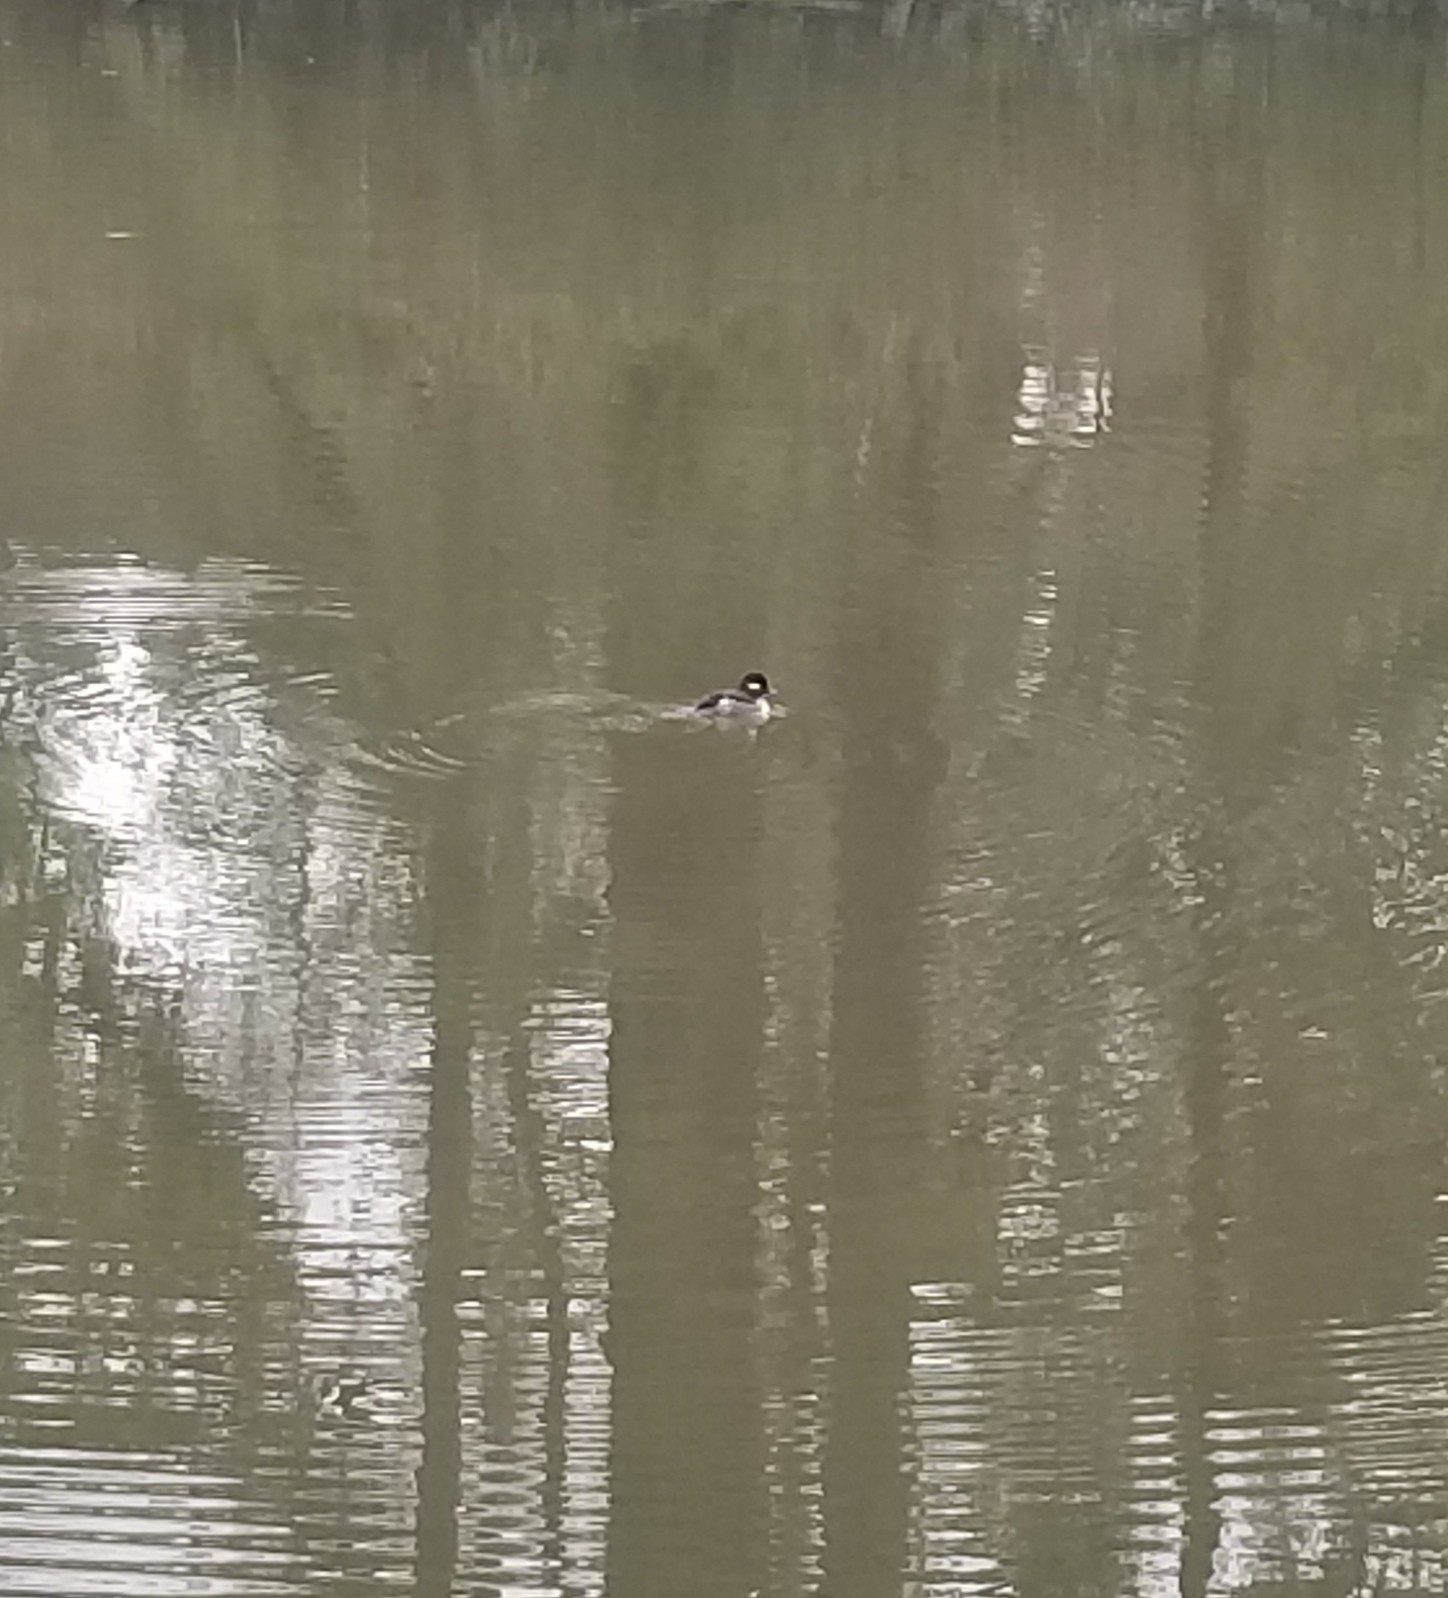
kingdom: Animalia
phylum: Chordata
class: Aves
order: Anseriformes
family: Anatidae
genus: Bucephala
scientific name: Bucephala albeola
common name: Bufflehead
